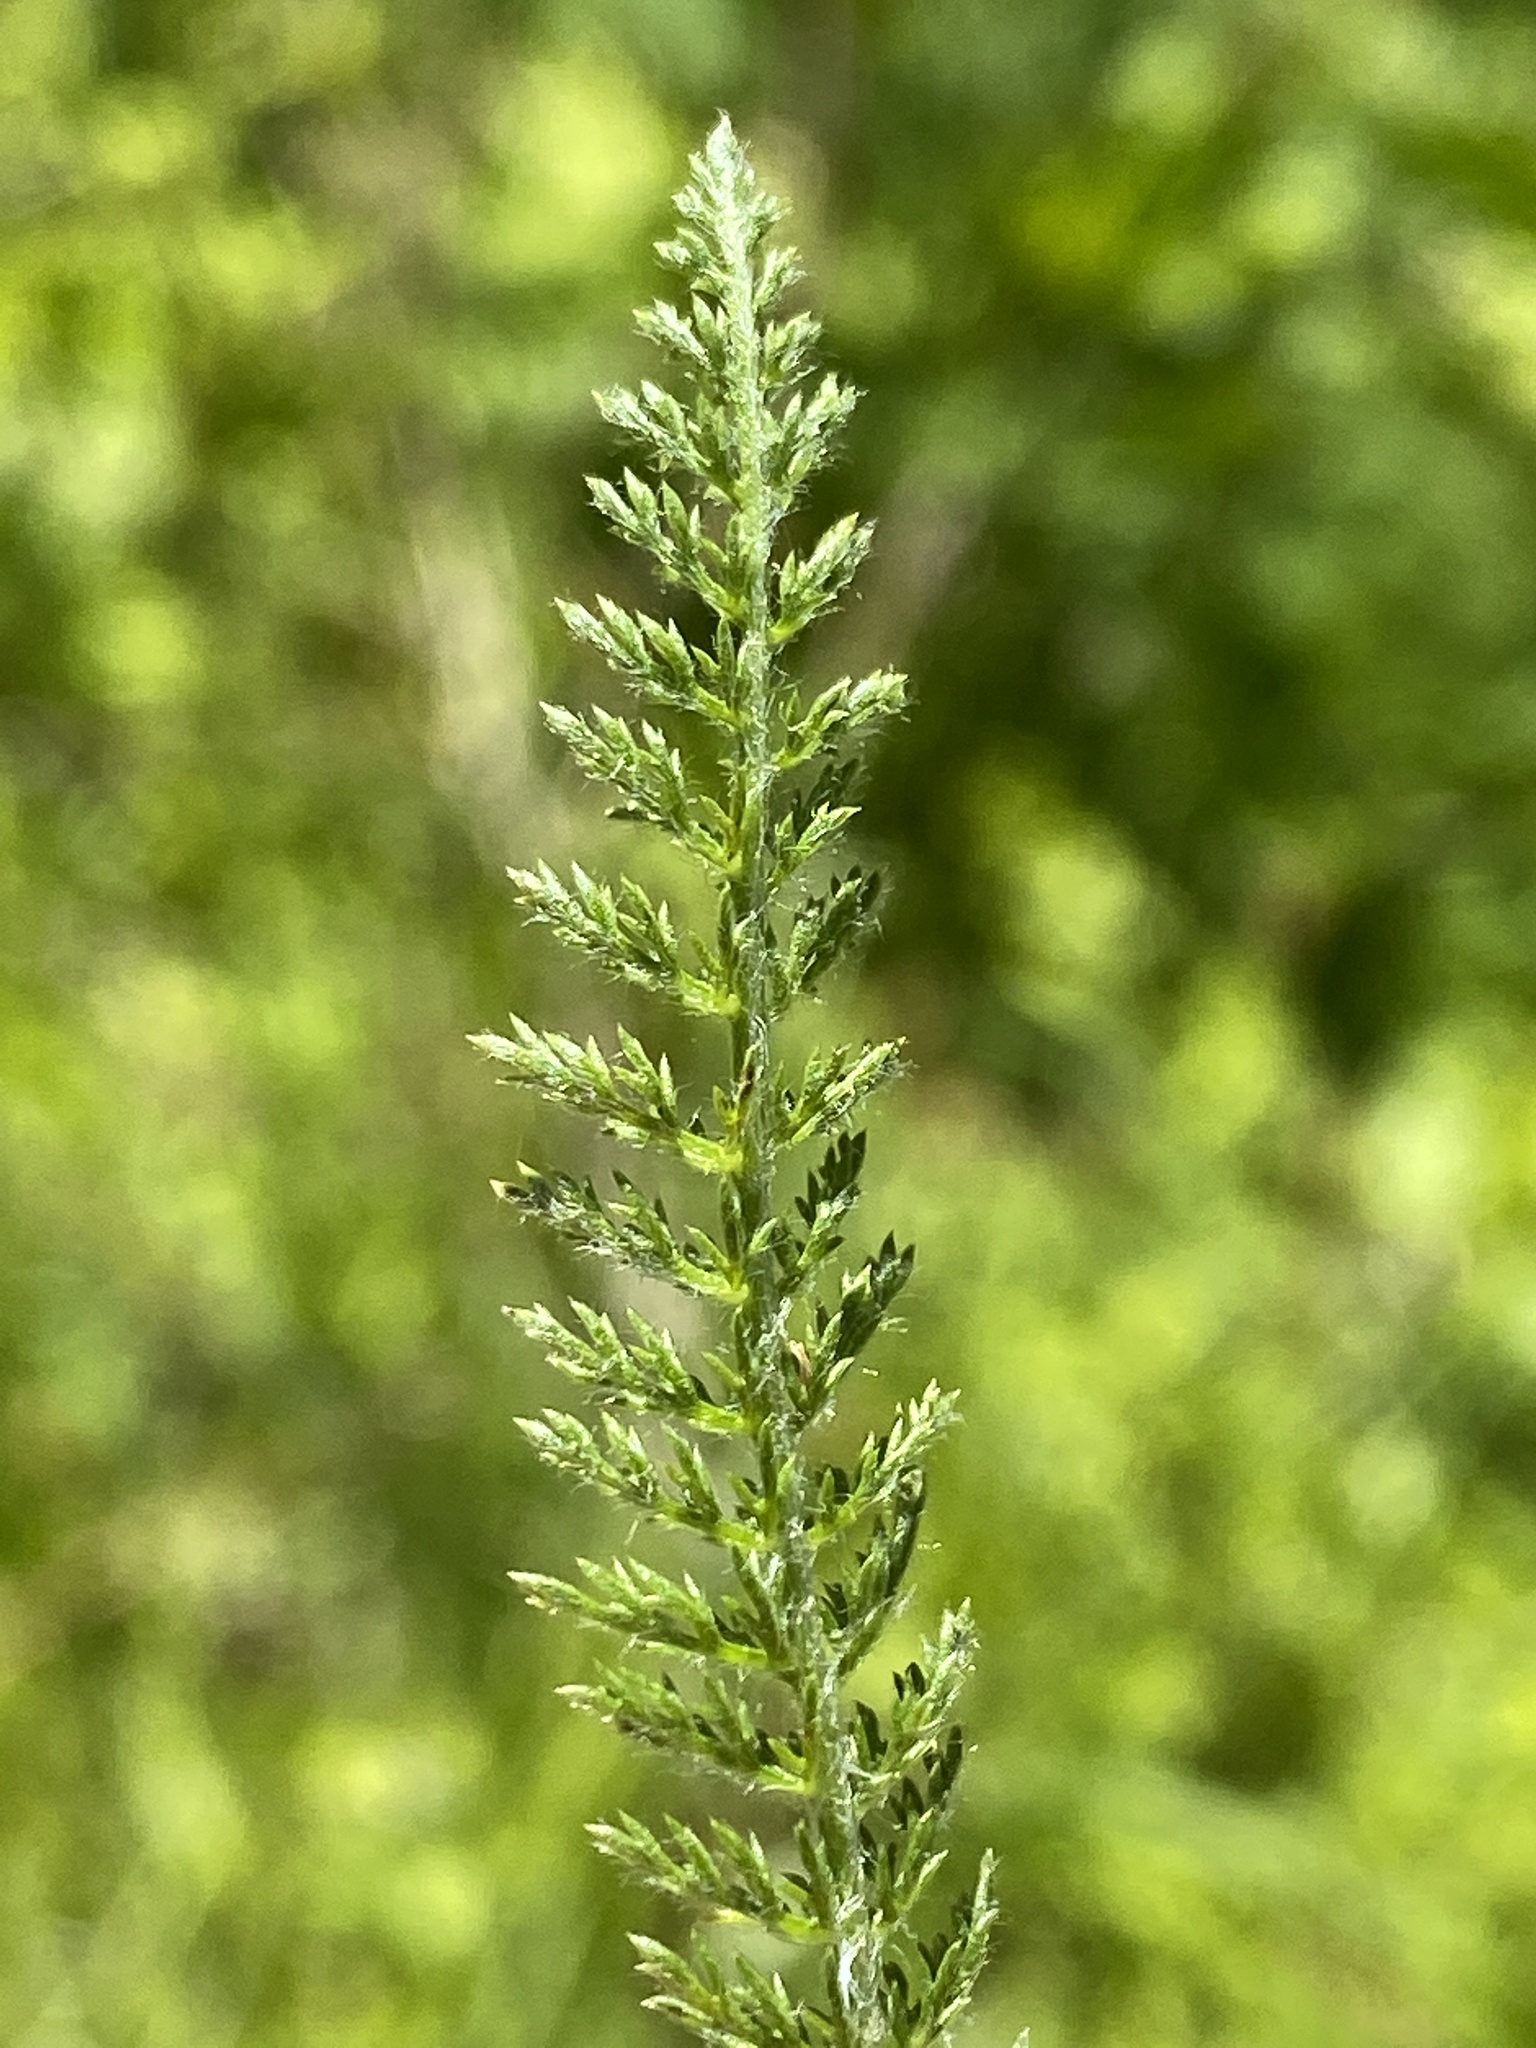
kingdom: Plantae
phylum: Tracheophyta
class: Magnoliopsida
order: Asterales
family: Asteraceae
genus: Achillea
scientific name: Achillea millefolium
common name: Yarrow
